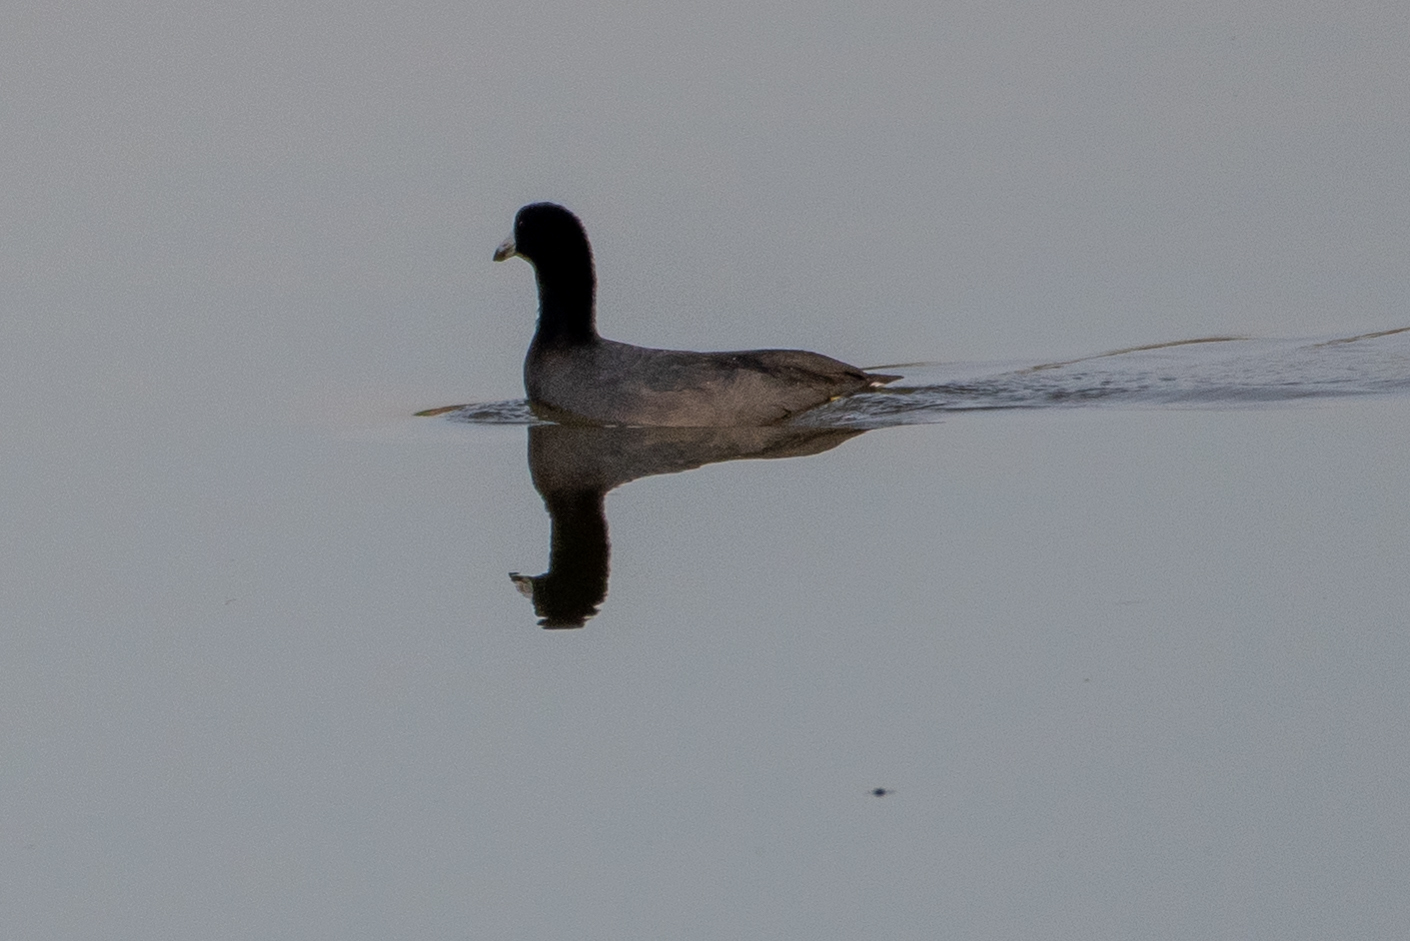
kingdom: Animalia
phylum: Chordata
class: Aves
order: Gruiformes
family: Rallidae
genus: Fulica
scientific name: Fulica americana
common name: American coot
